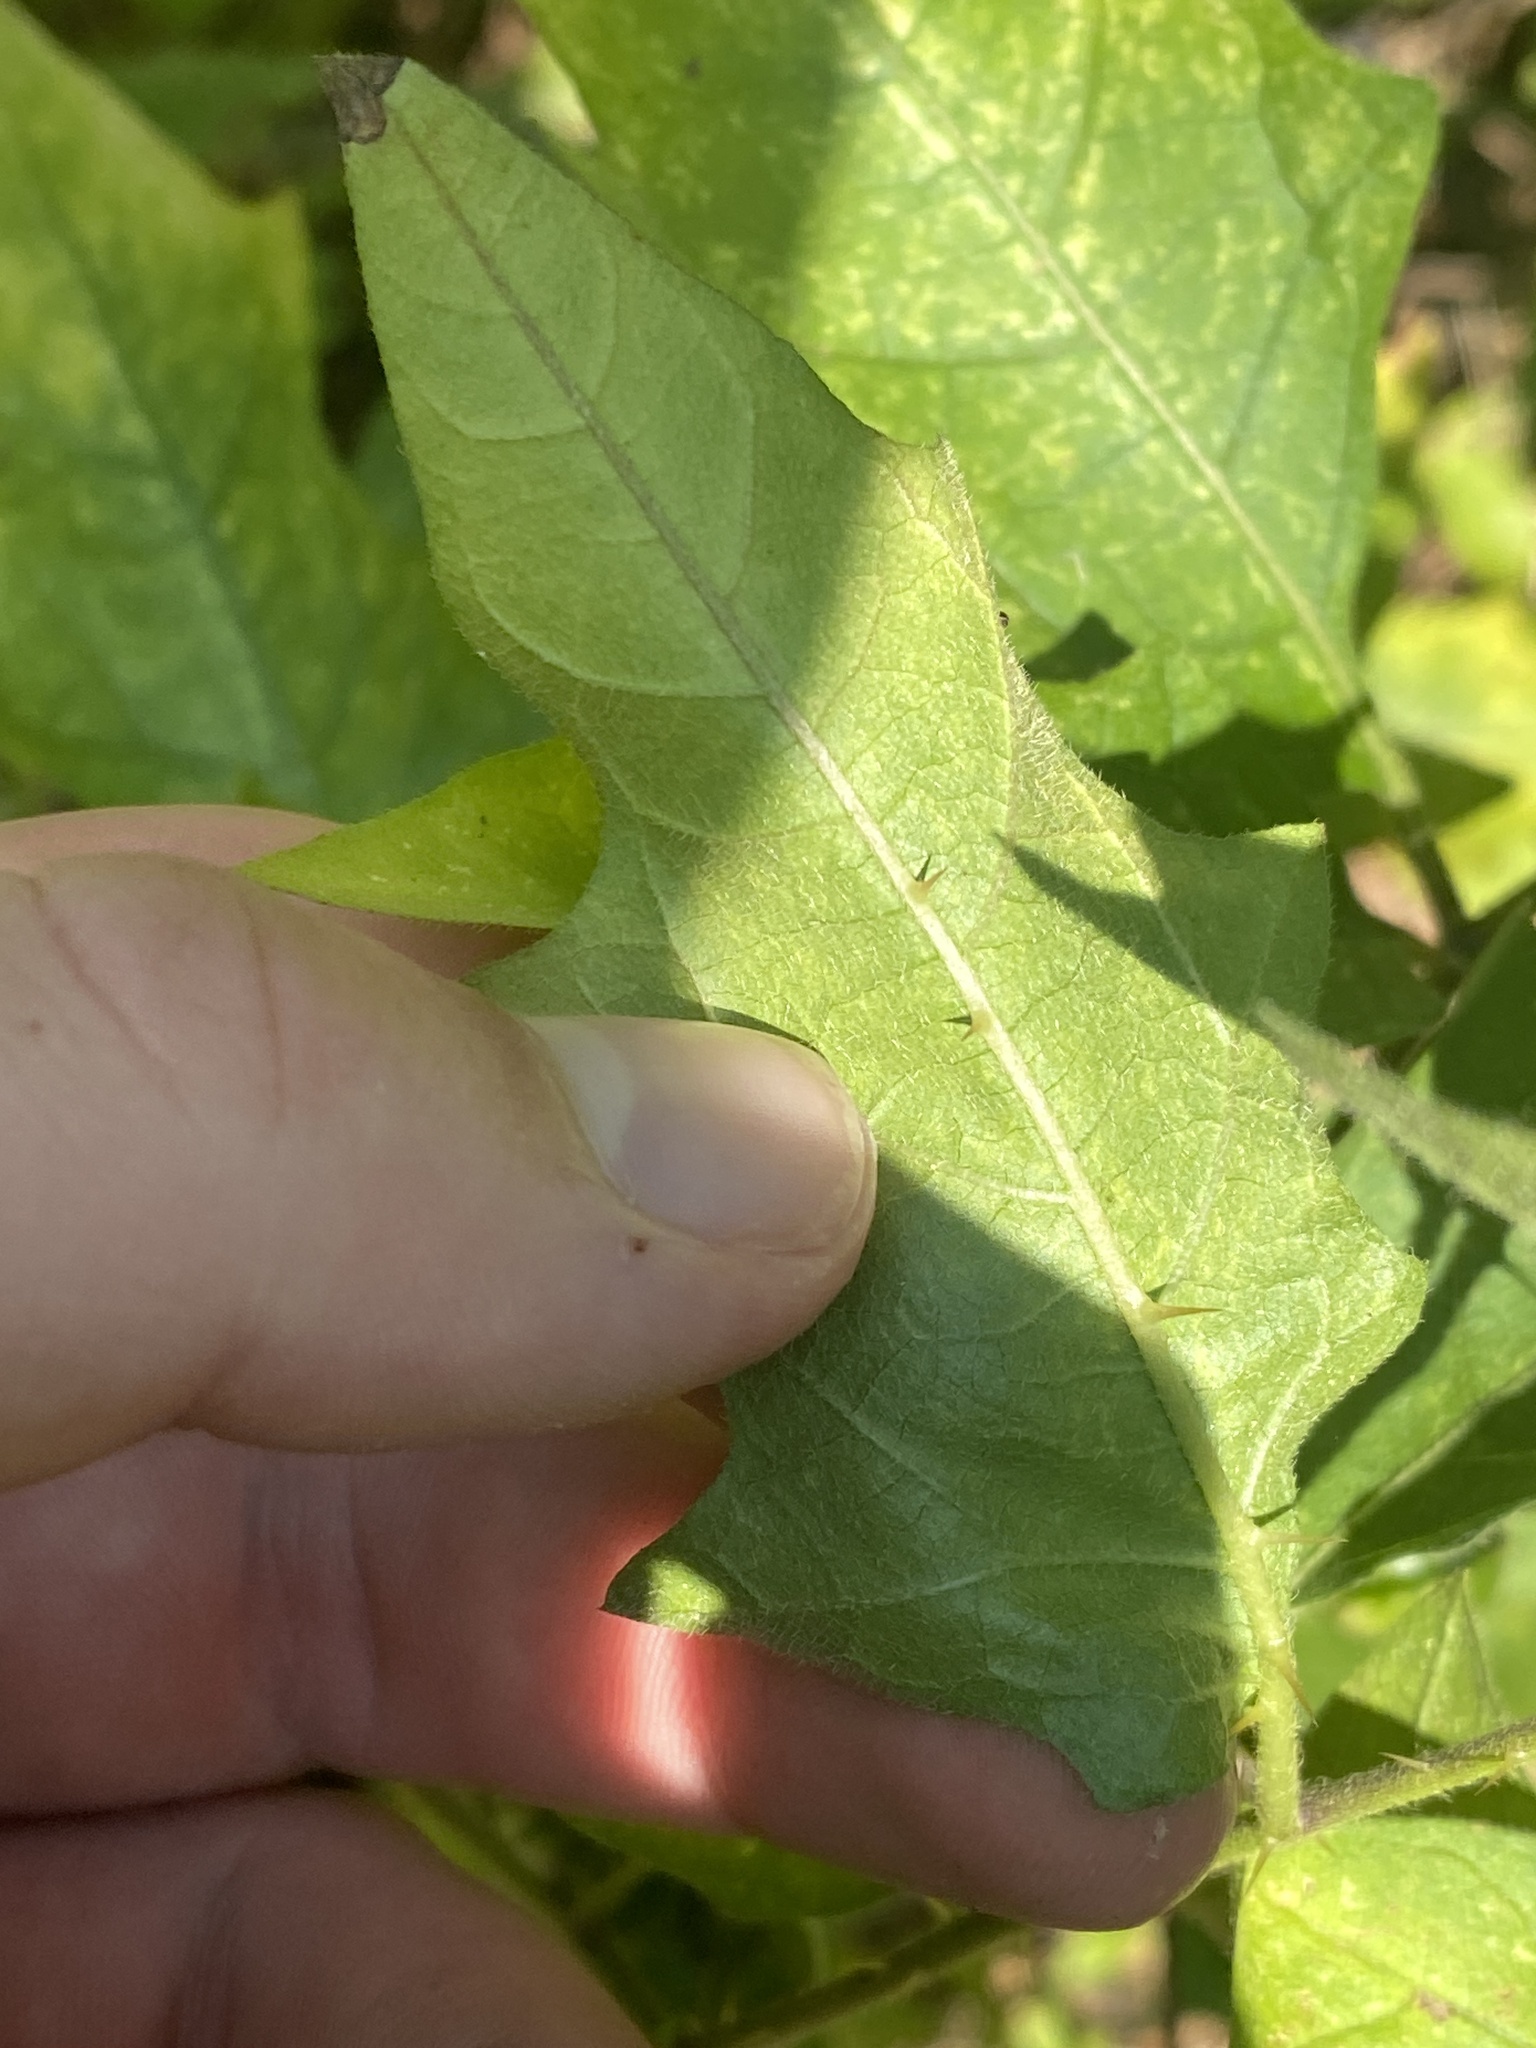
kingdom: Plantae
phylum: Tracheophyta
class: Magnoliopsida
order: Solanales
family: Solanaceae
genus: Solanum
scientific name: Solanum carolinense
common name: Horse-nettle
